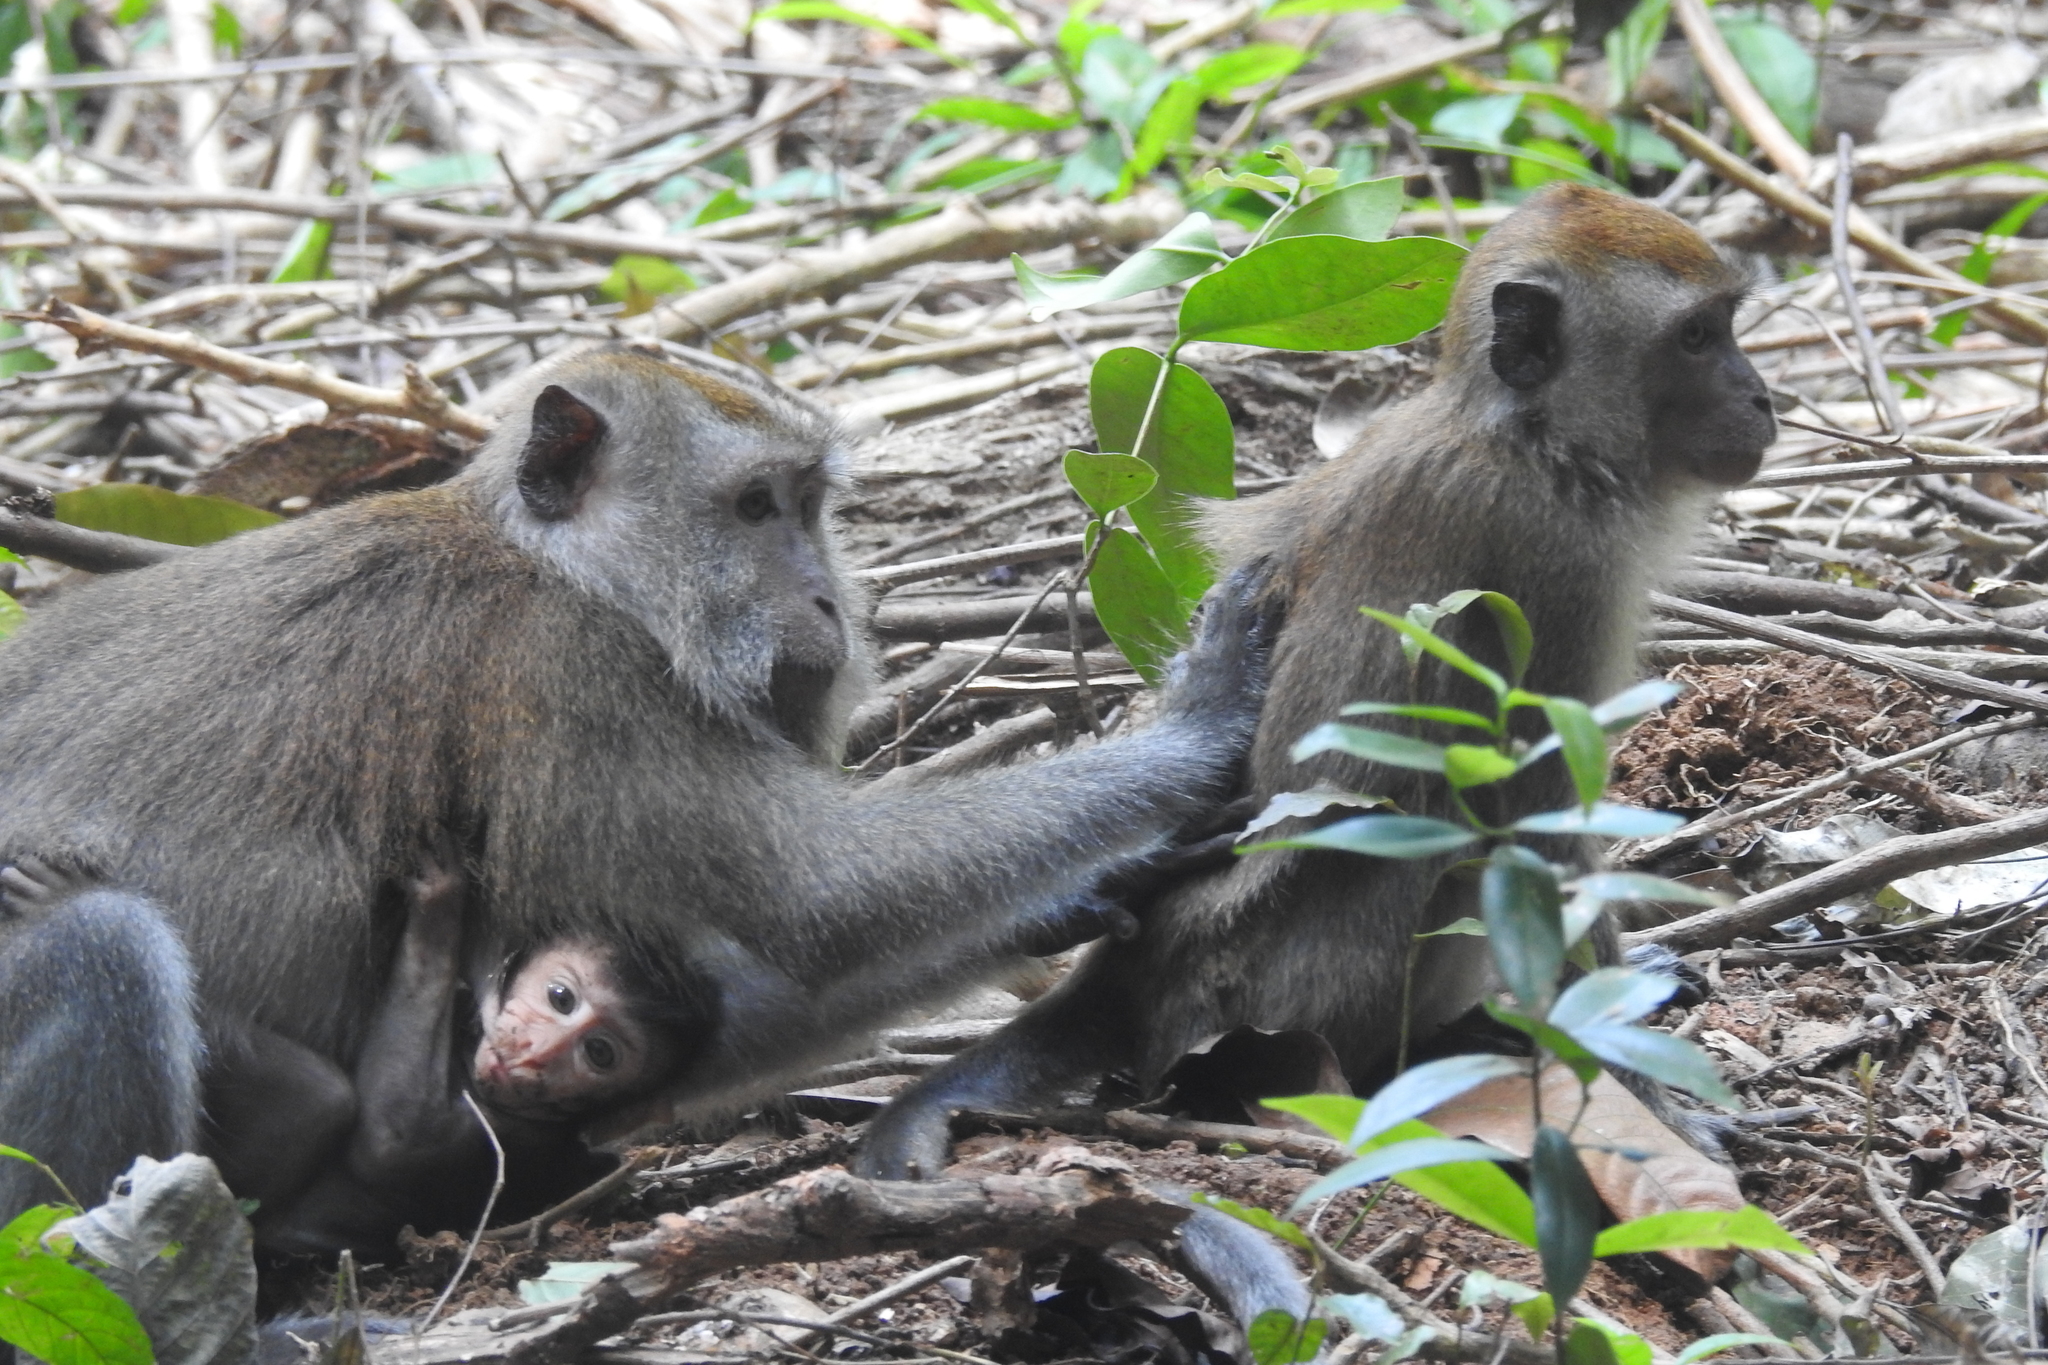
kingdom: Animalia
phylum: Chordata
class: Mammalia
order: Primates
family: Cercopithecidae
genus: Macaca
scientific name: Macaca fascicularis
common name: Crab-eating macaque
